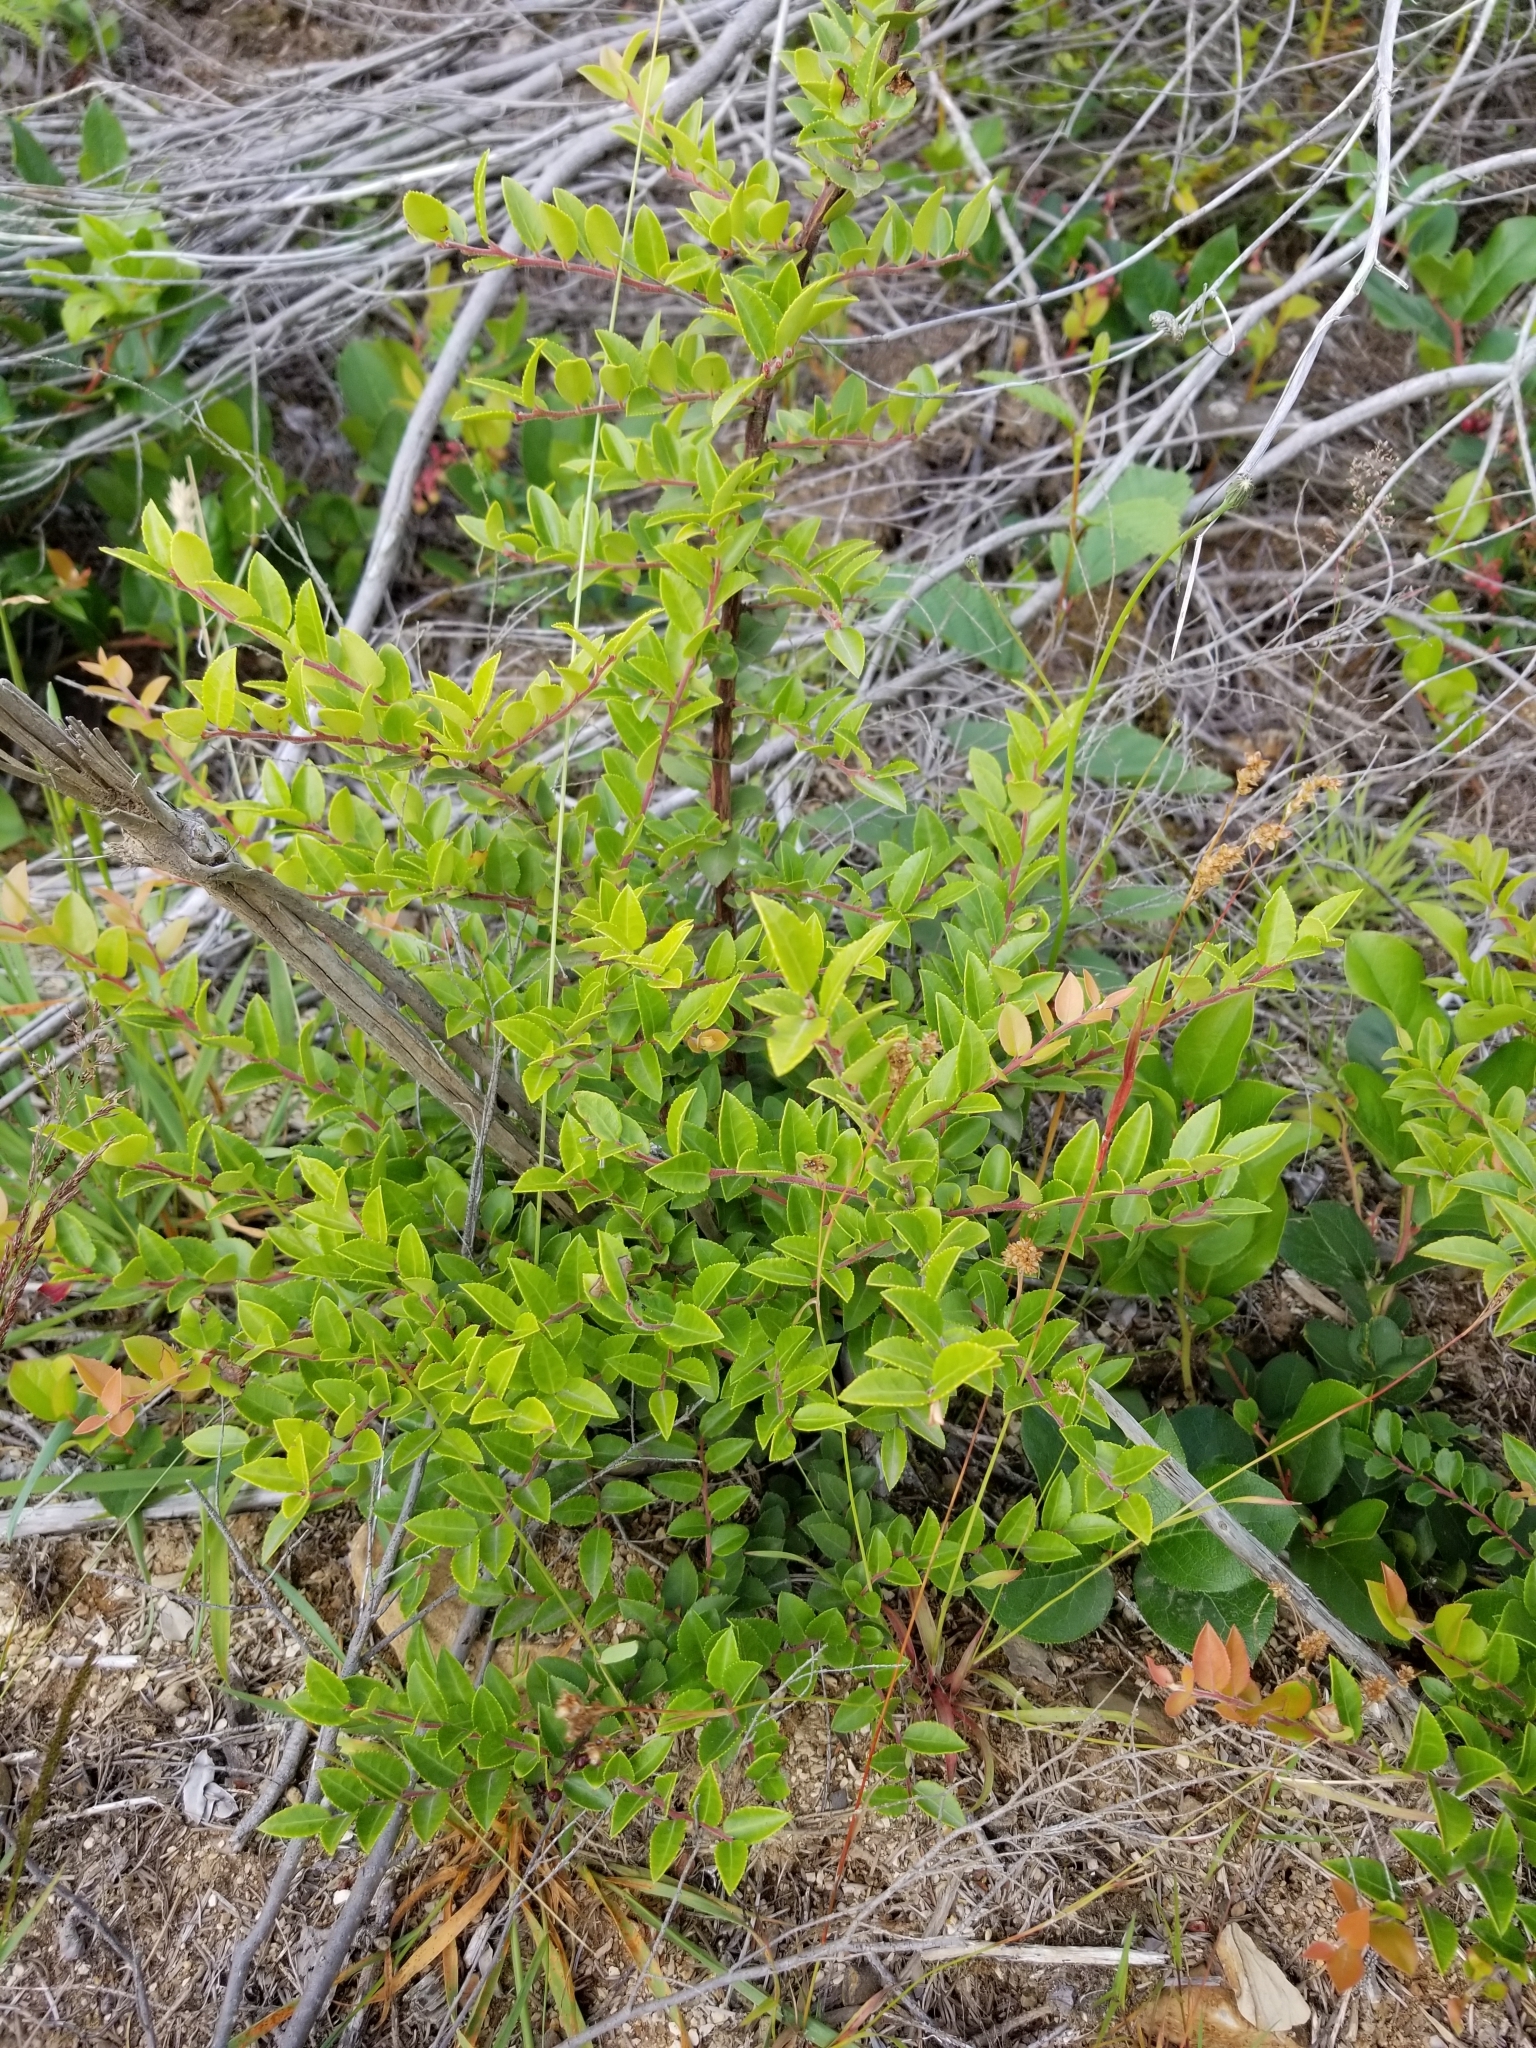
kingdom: Plantae
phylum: Tracheophyta
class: Magnoliopsida
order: Ericales
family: Ericaceae
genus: Vaccinium
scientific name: Vaccinium ovatum
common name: California-huckleberry
